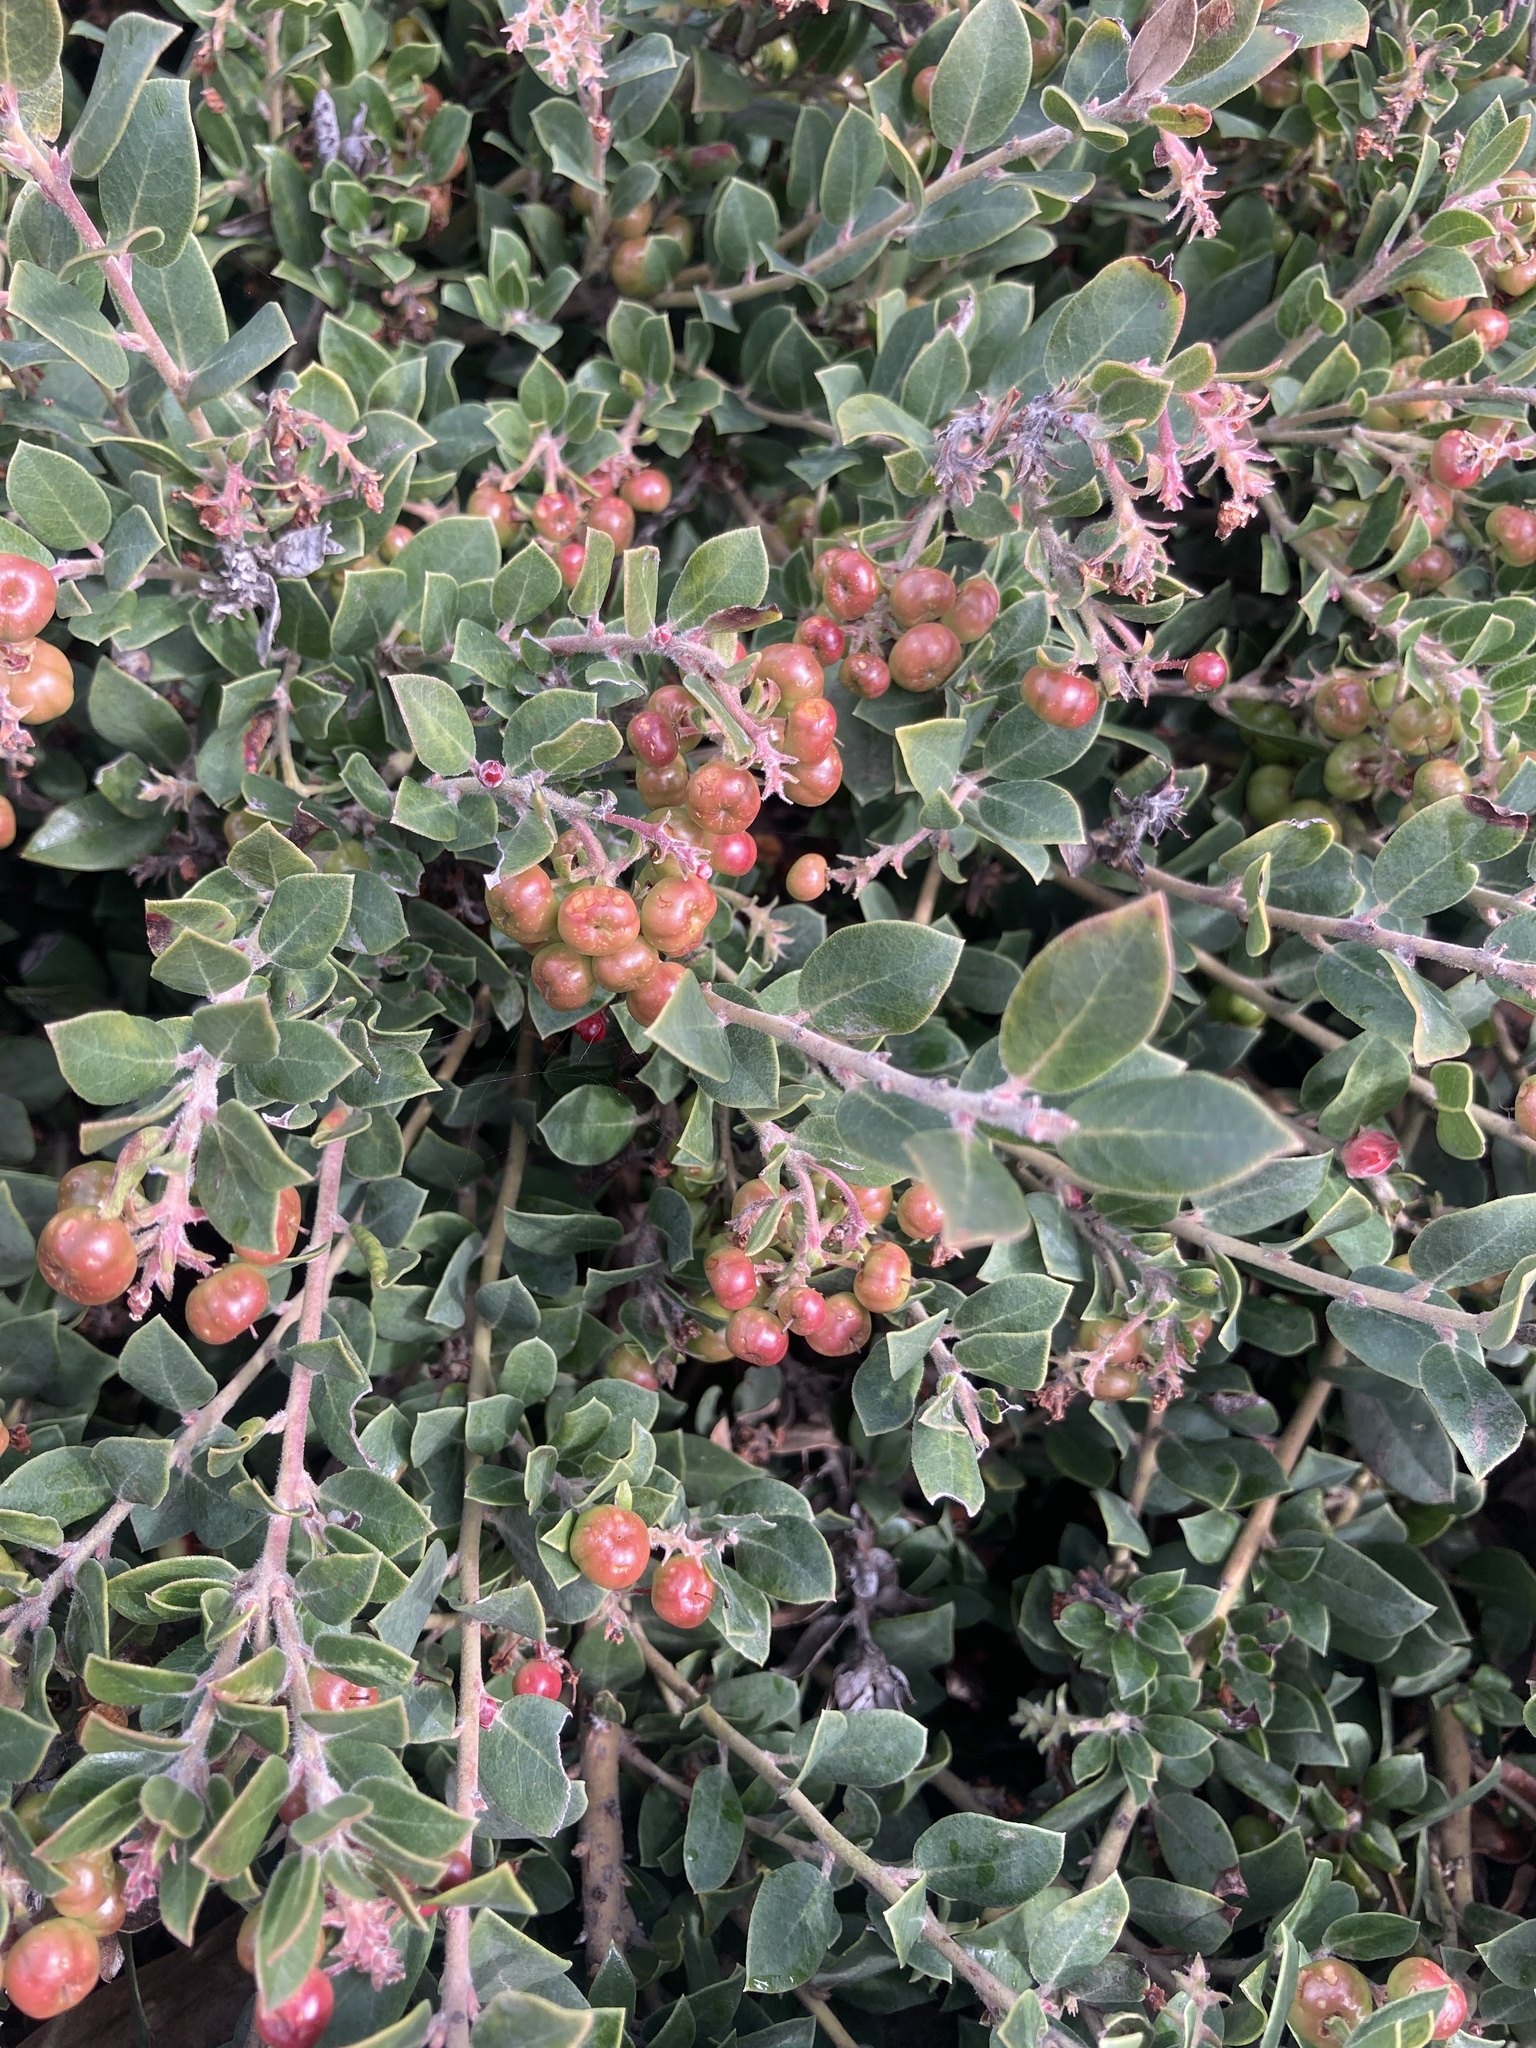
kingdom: Plantae
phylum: Tracheophyta
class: Magnoliopsida
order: Ericales
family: Ericaceae
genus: Arctostaphylos
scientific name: Arctostaphylos pumila
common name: Sandmat manzanita
